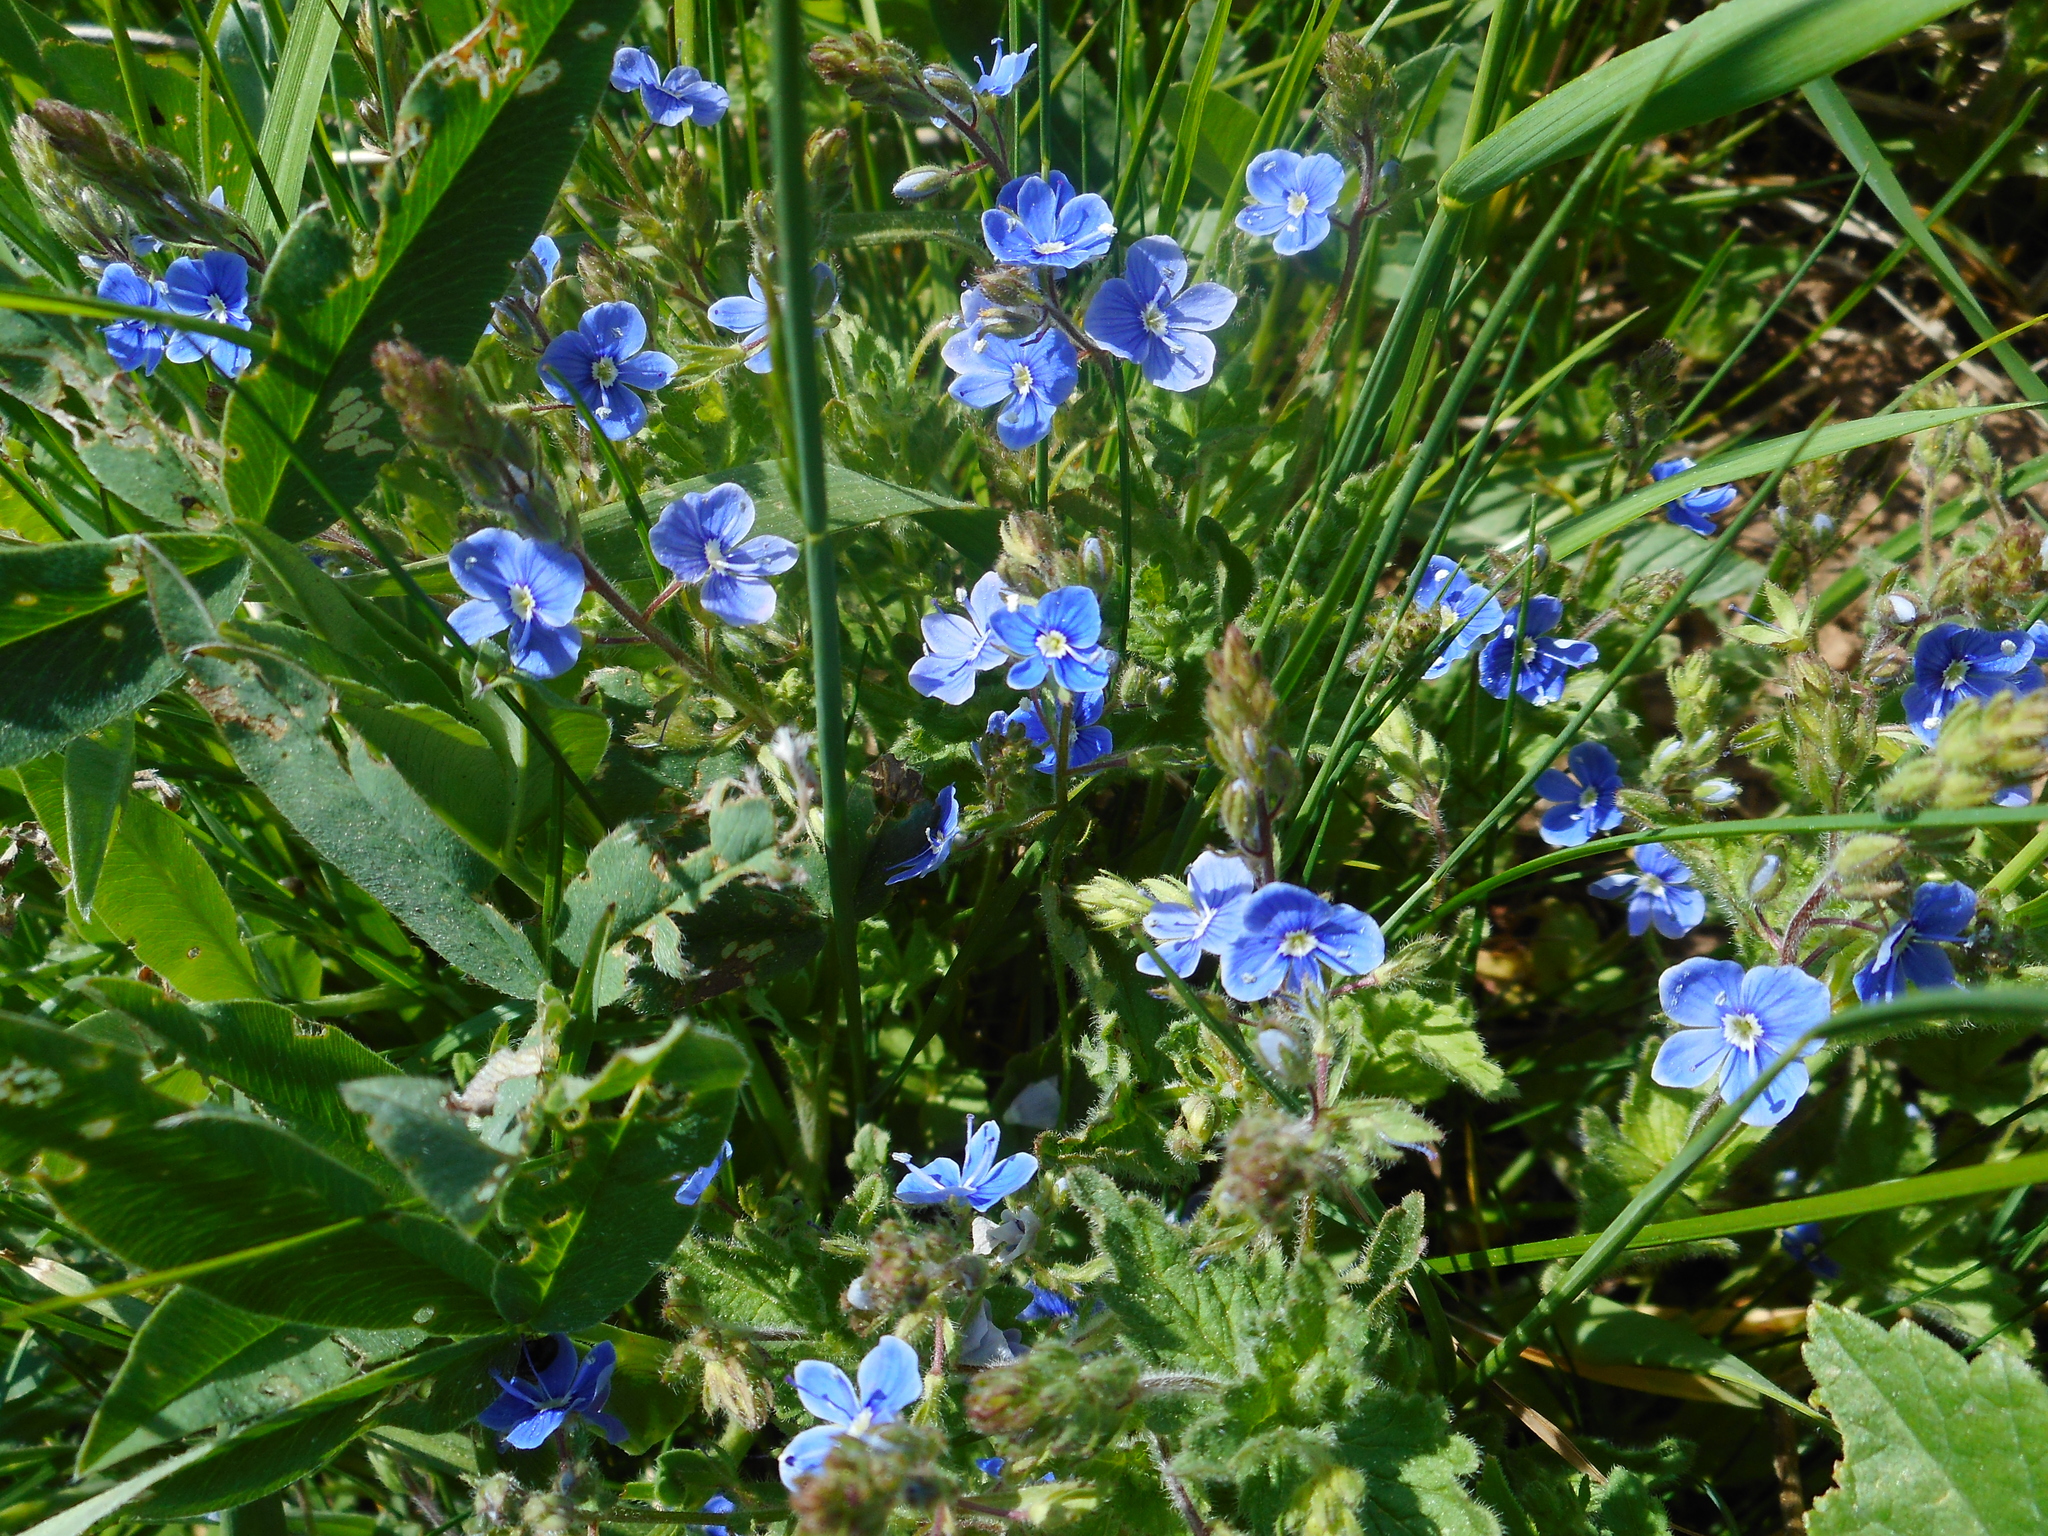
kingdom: Plantae
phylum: Tracheophyta
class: Magnoliopsida
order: Lamiales
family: Plantaginaceae
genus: Veronica
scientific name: Veronica chamaedrys
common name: Germander speedwell
